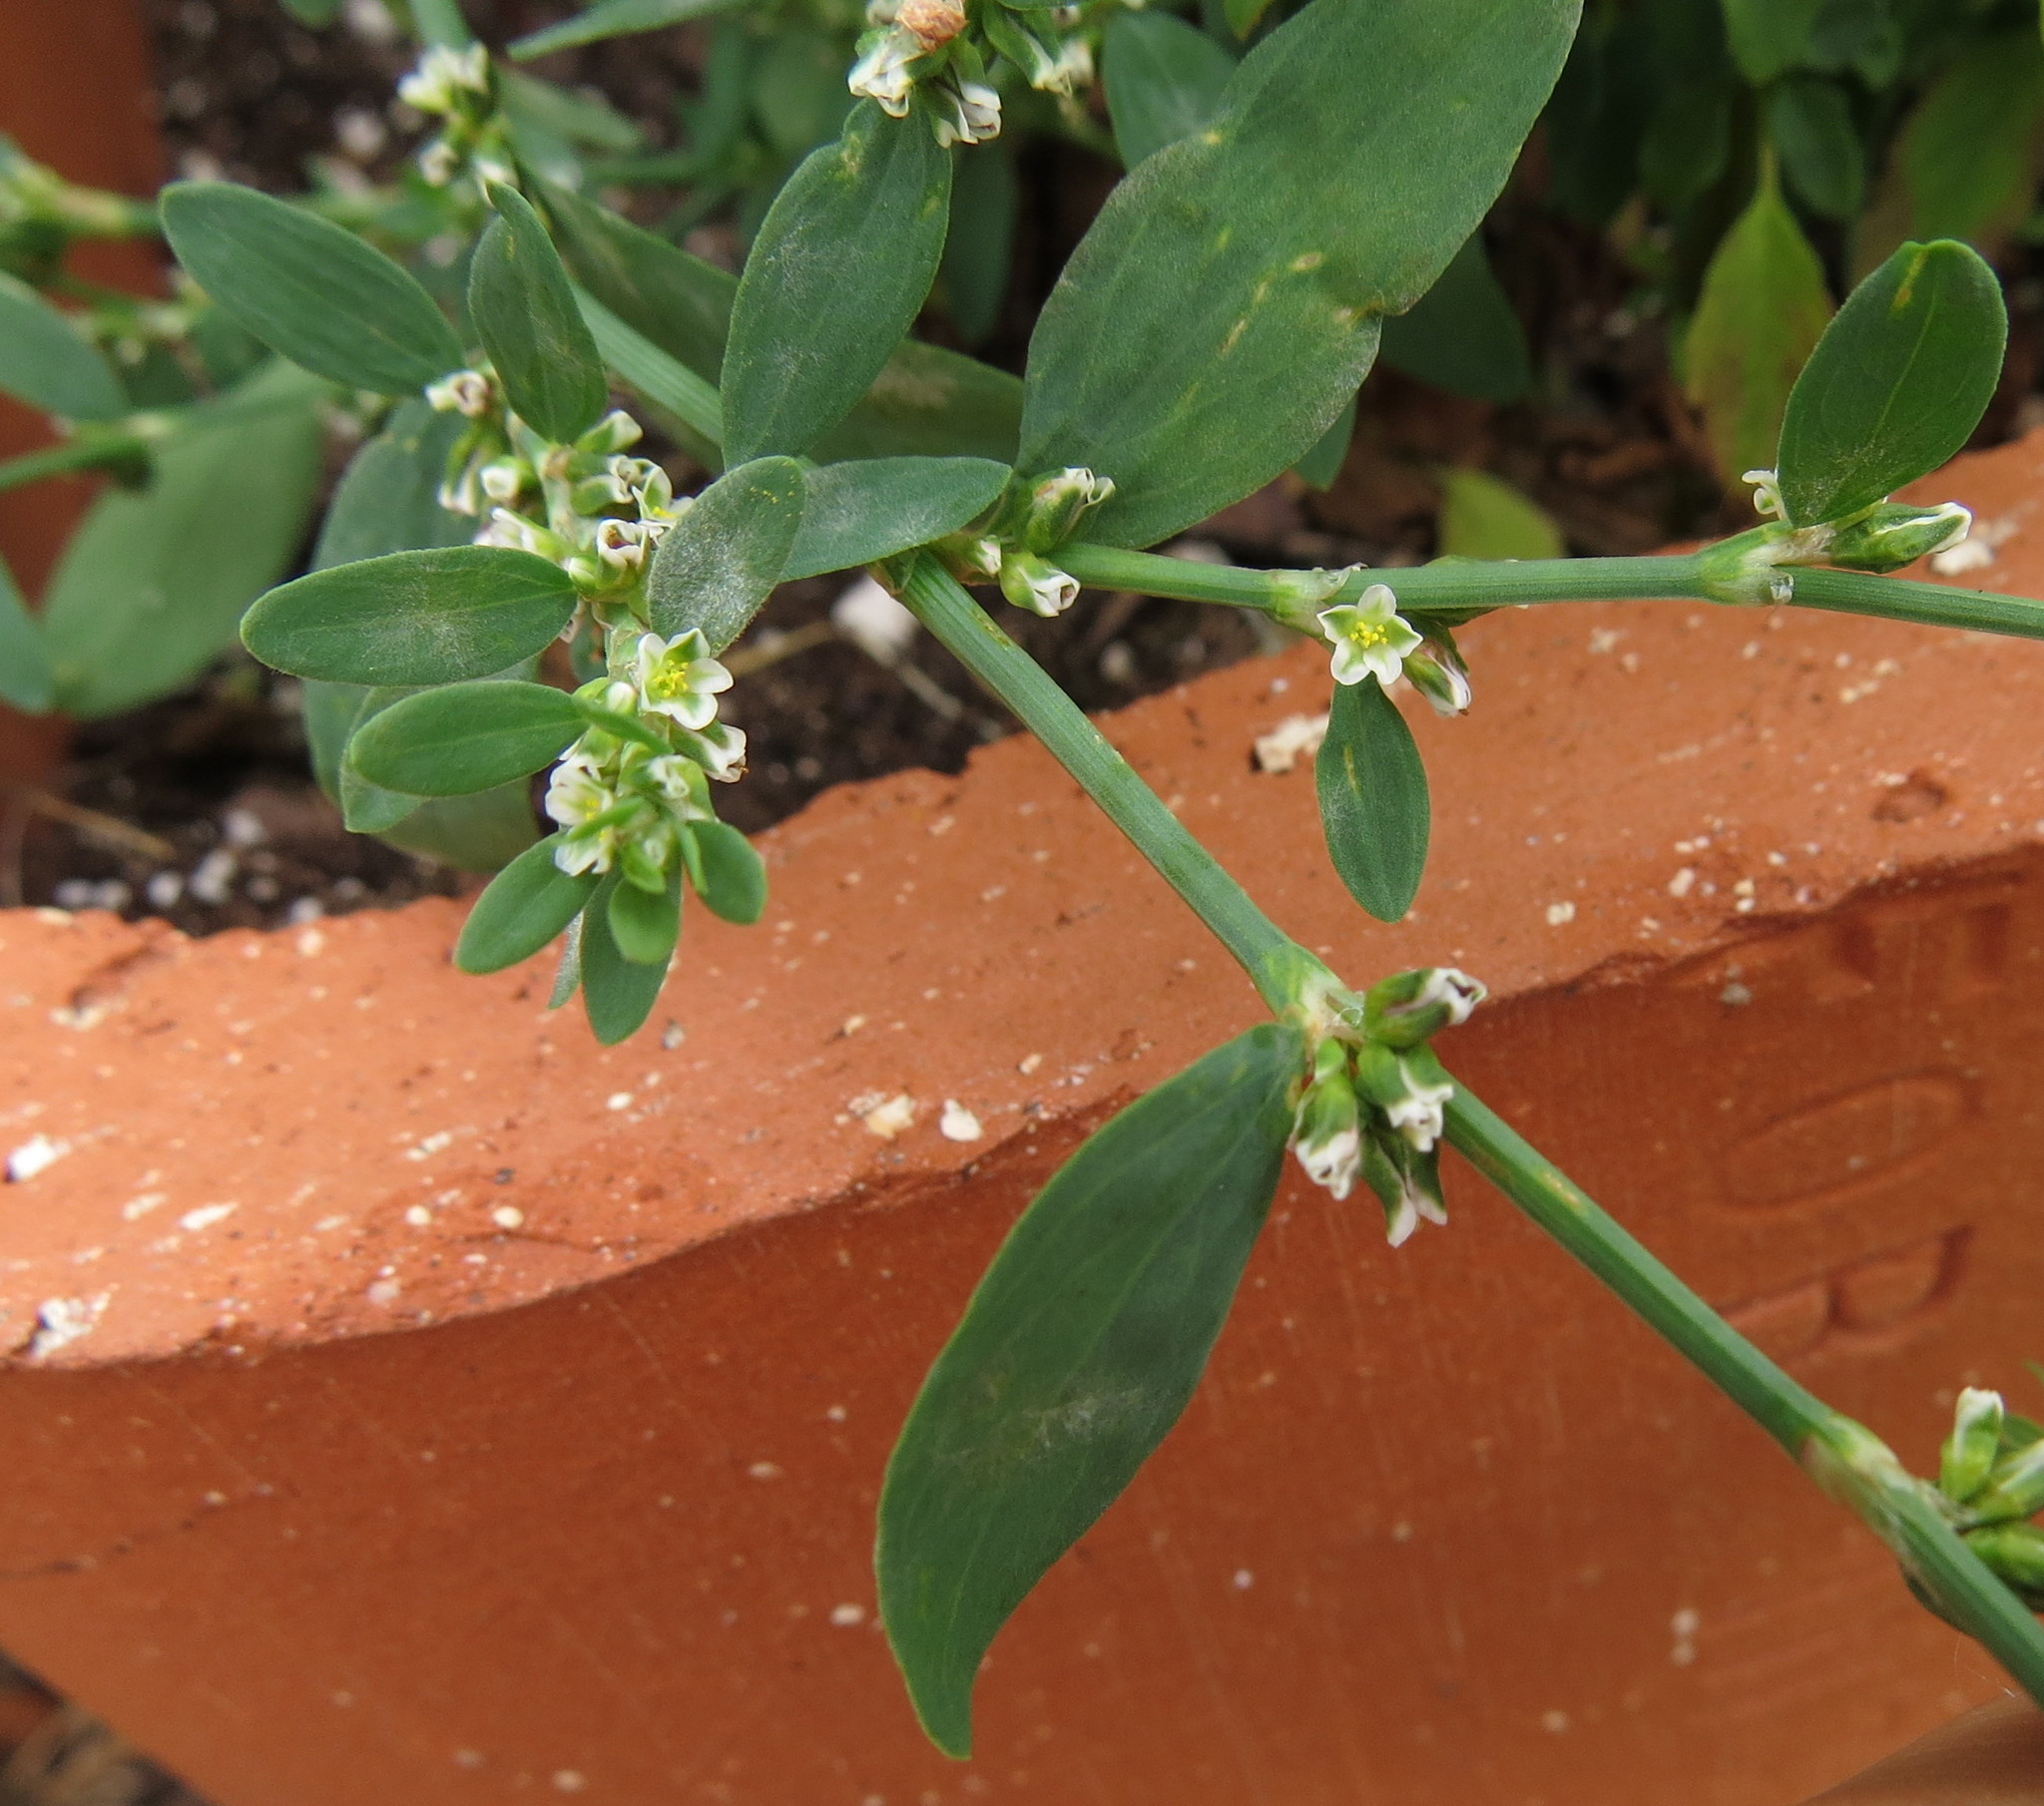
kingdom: Plantae
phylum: Tracheophyta
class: Magnoliopsida
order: Caryophyllales
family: Polygonaceae
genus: Polygonum
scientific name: Polygonum aviculare
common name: Prostrate knotweed
